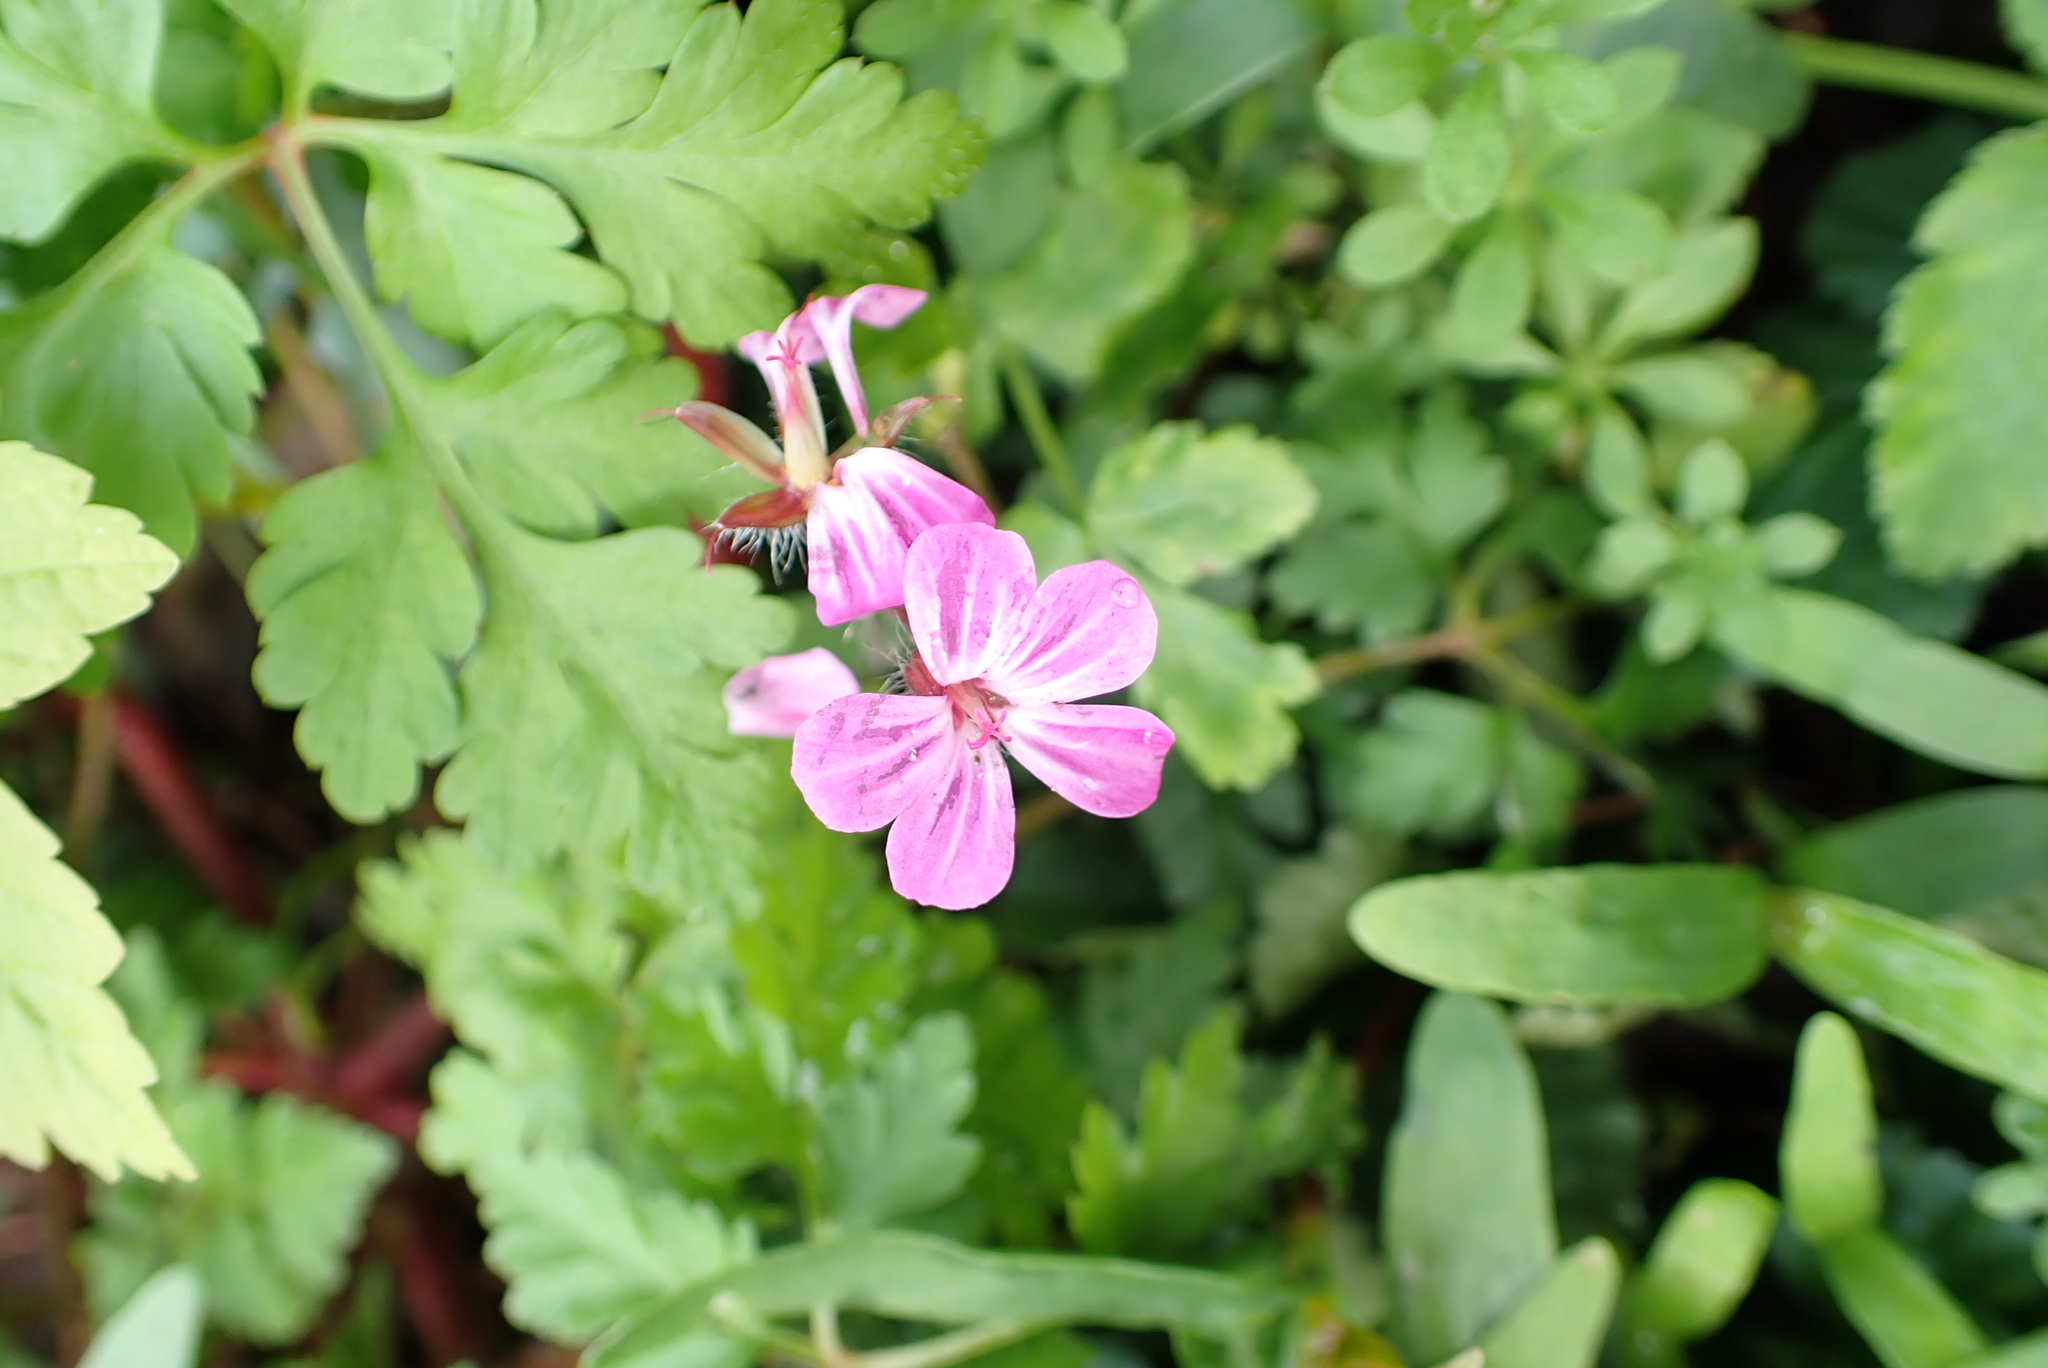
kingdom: Plantae
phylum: Tracheophyta
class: Magnoliopsida
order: Geraniales
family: Geraniaceae
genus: Geranium
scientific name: Geranium robertianum
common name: Herb-robert
